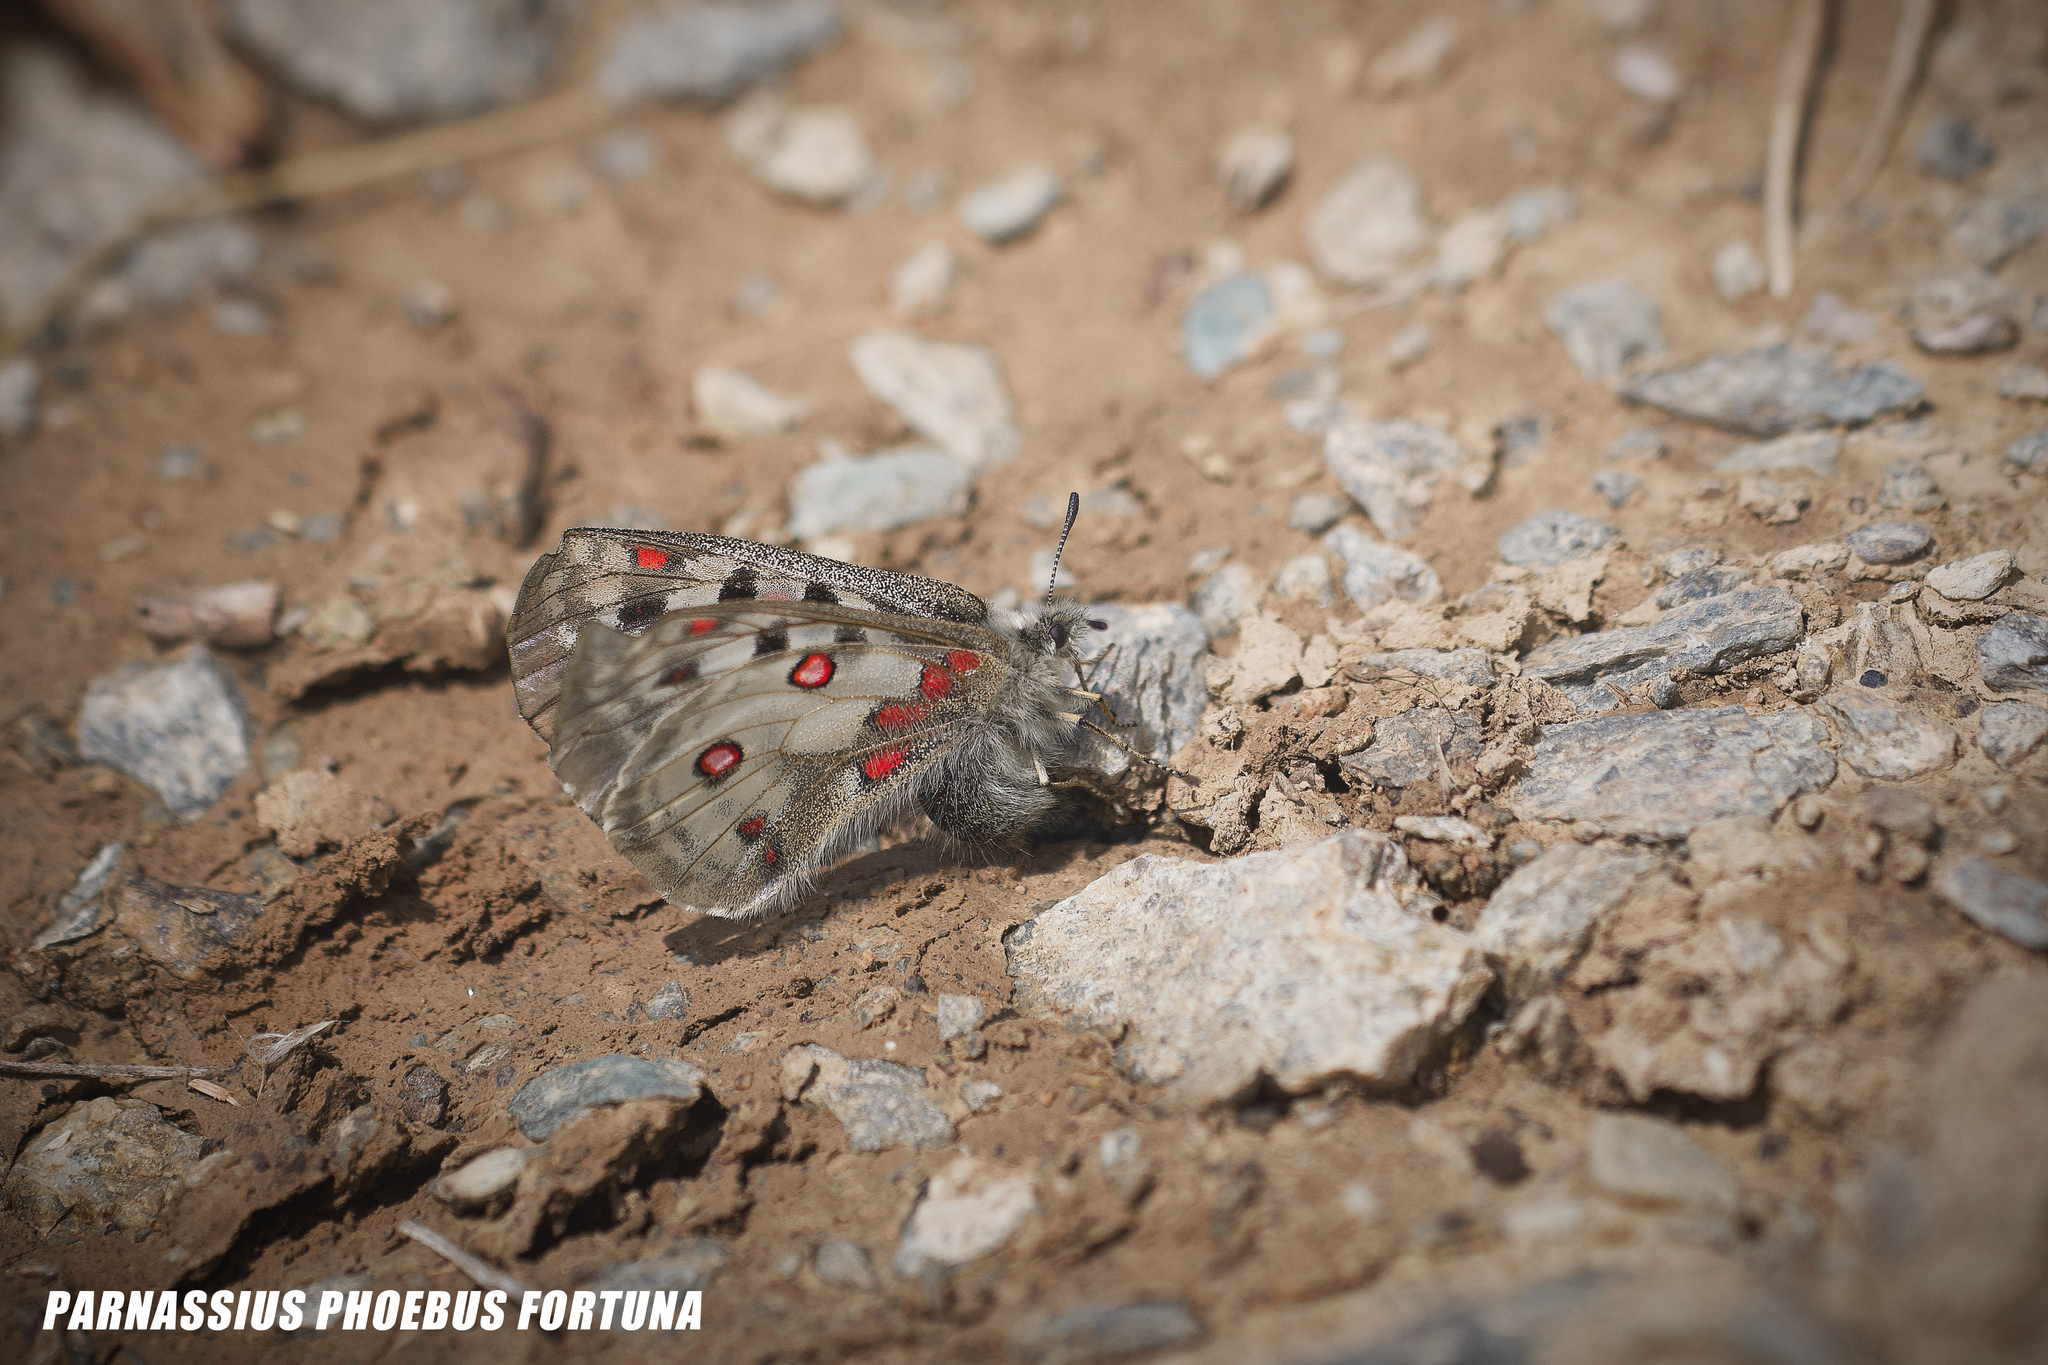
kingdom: Animalia
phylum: Arthropoda
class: Insecta
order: Lepidoptera
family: Papilionidae
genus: Parnassius
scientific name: Parnassius phoebus
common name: Small apollo
